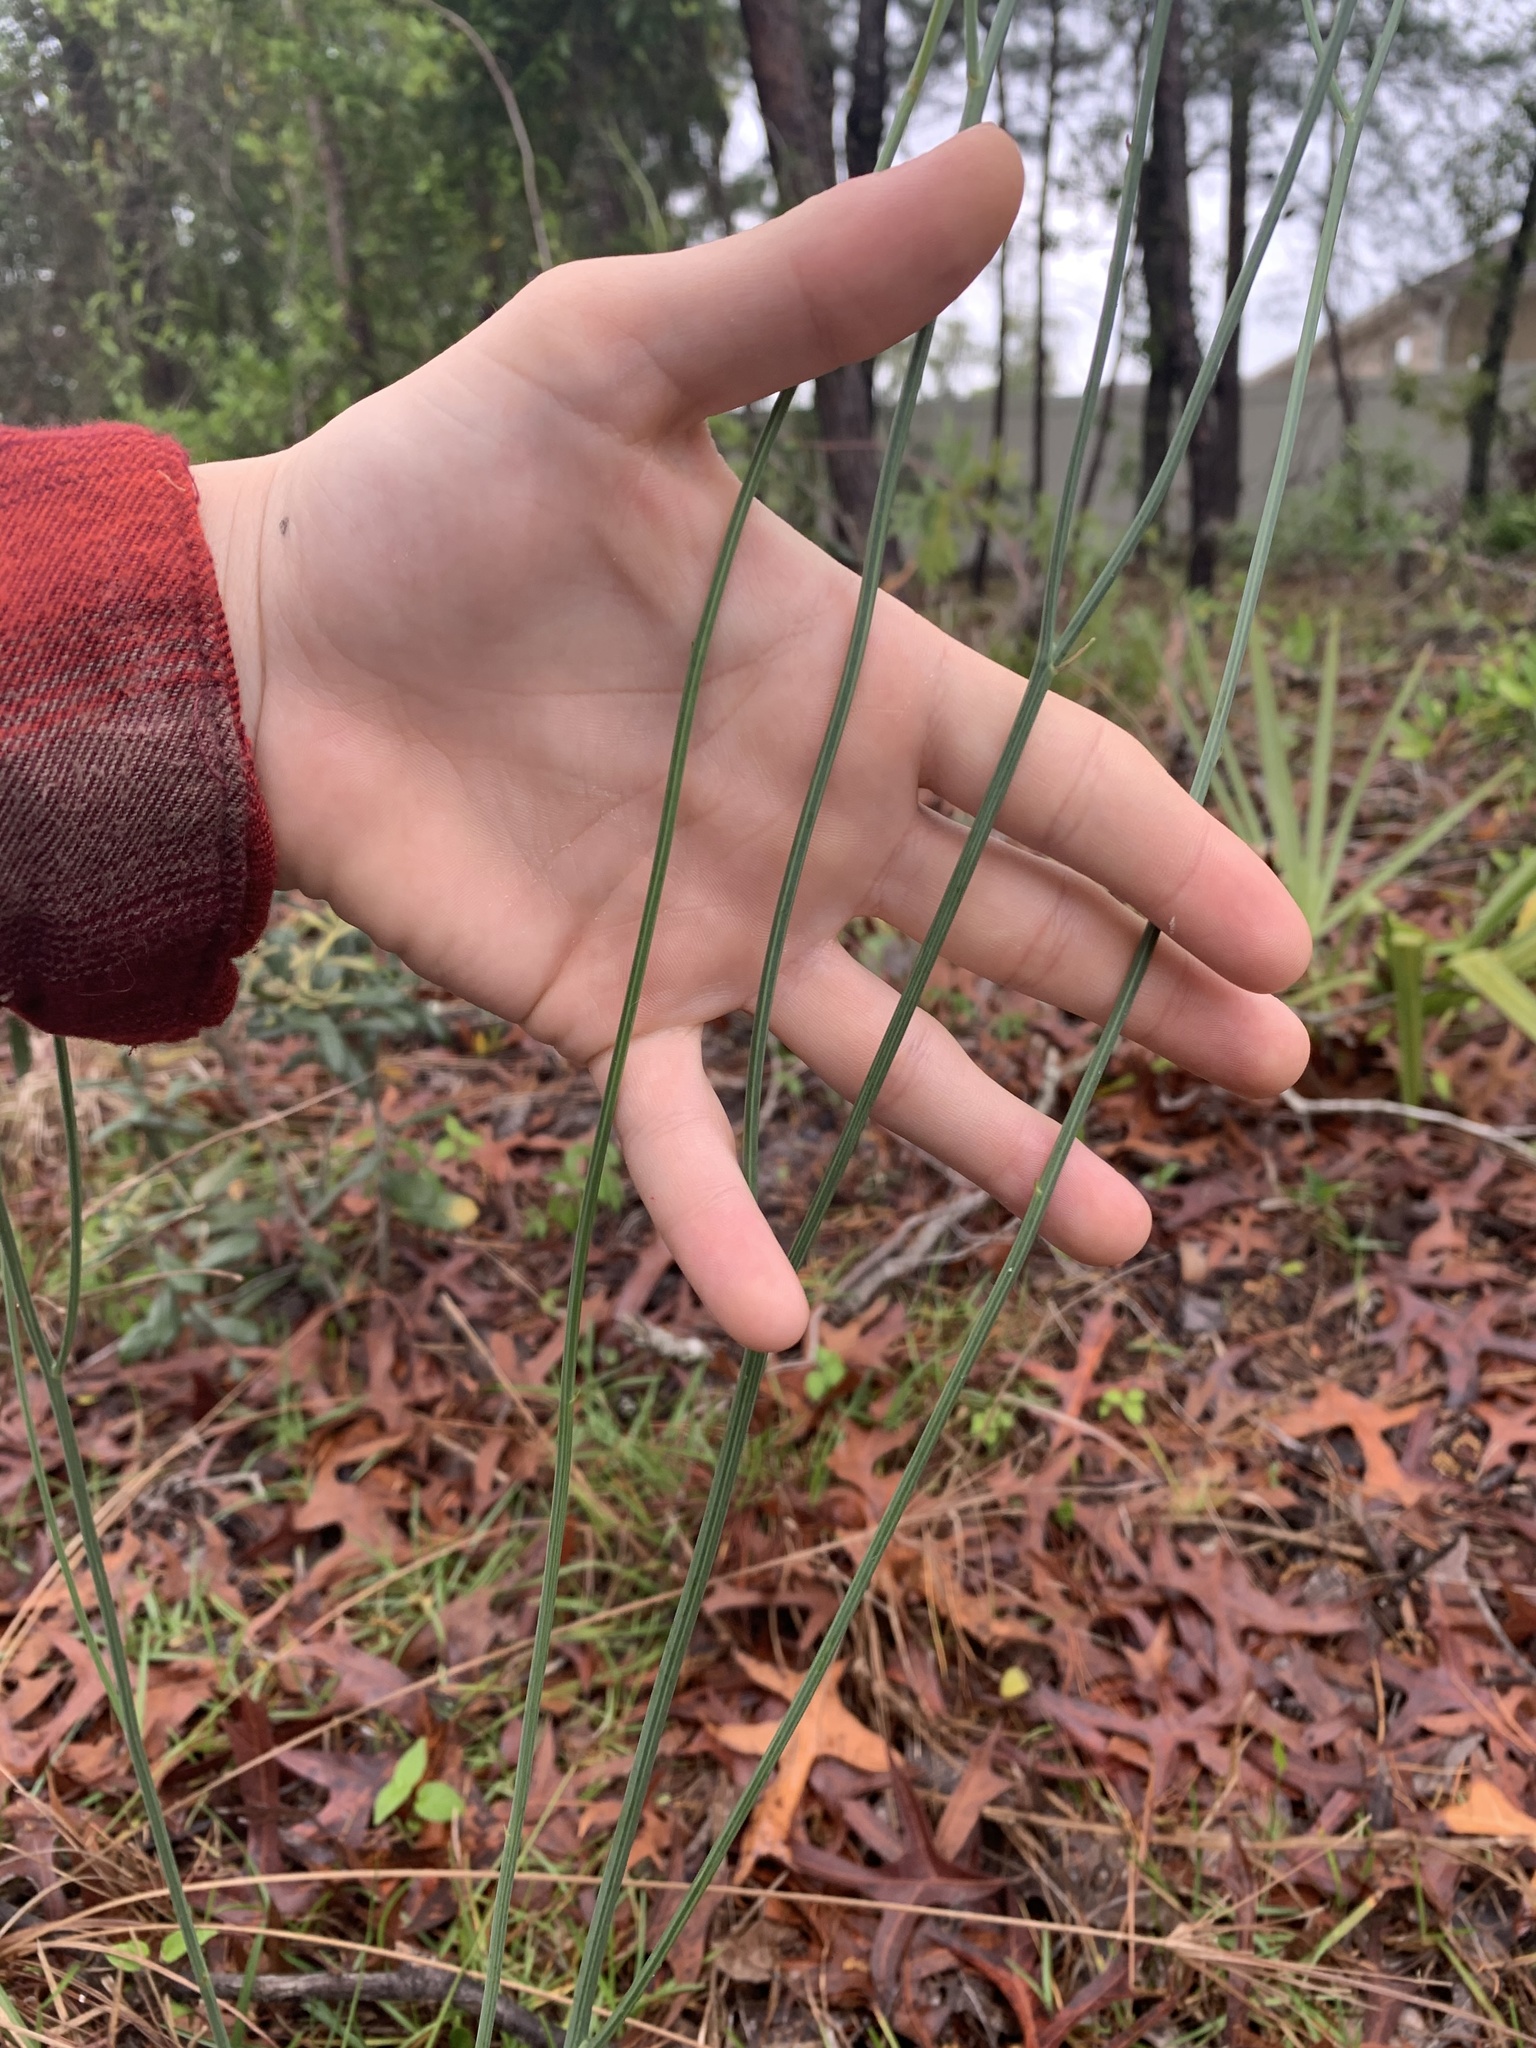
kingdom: Plantae
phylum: Tracheophyta
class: Magnoliopsida
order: Asterales
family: Asteraceae
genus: Lygodesmia
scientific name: Lygodesmia aphylla
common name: Rose-rush
